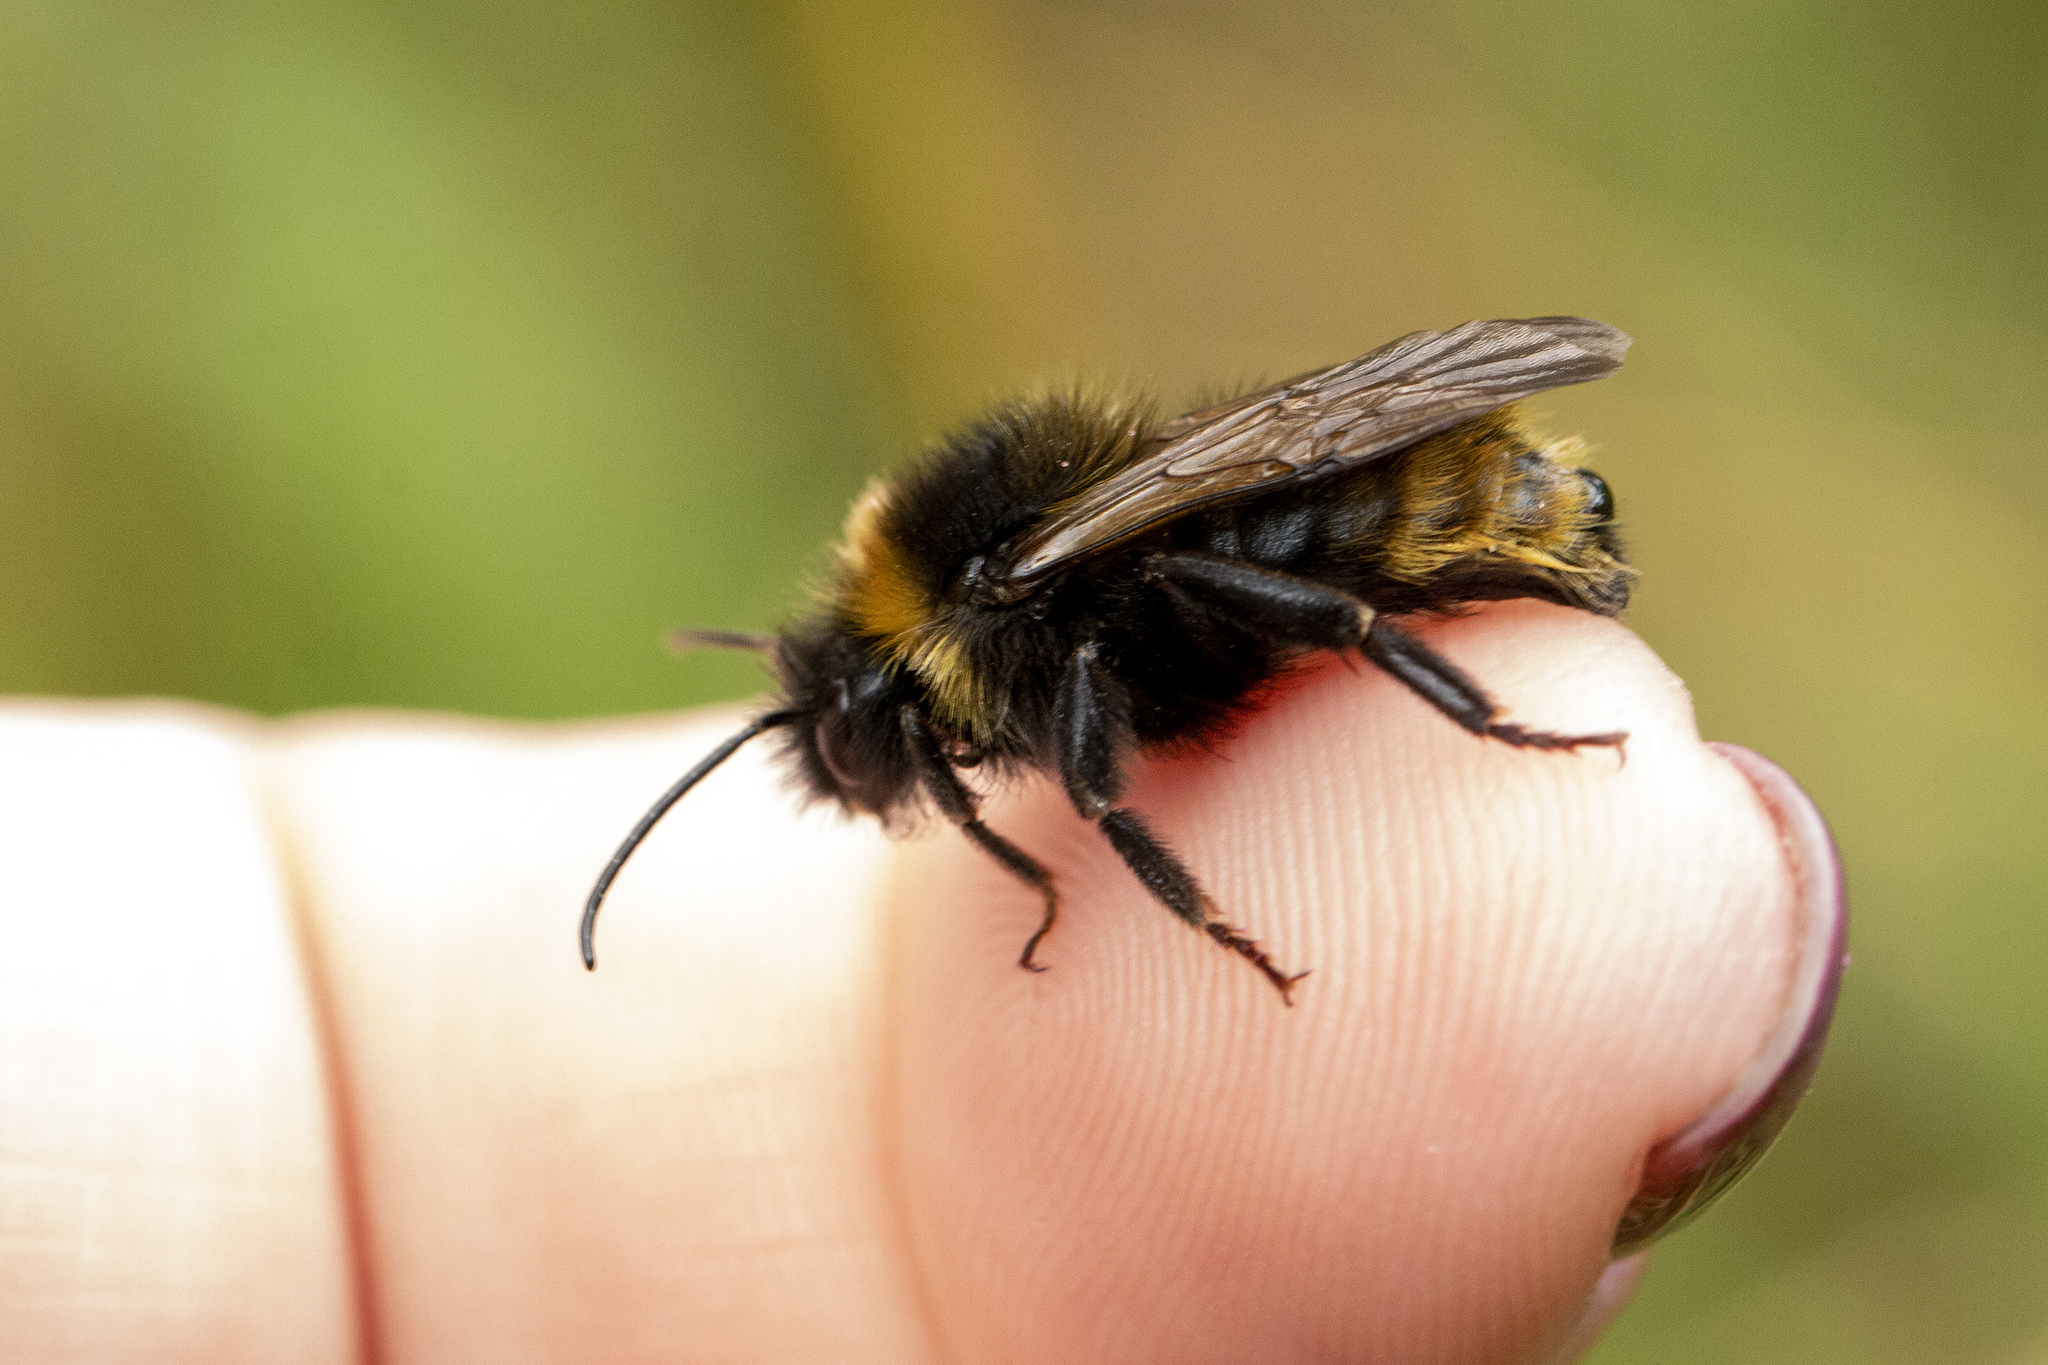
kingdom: Animalia
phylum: Arthropoda
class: Insecta
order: Hymenoptera
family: Apidae
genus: Bombus
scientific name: Bombus campestris
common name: Field cuckoo-bee
